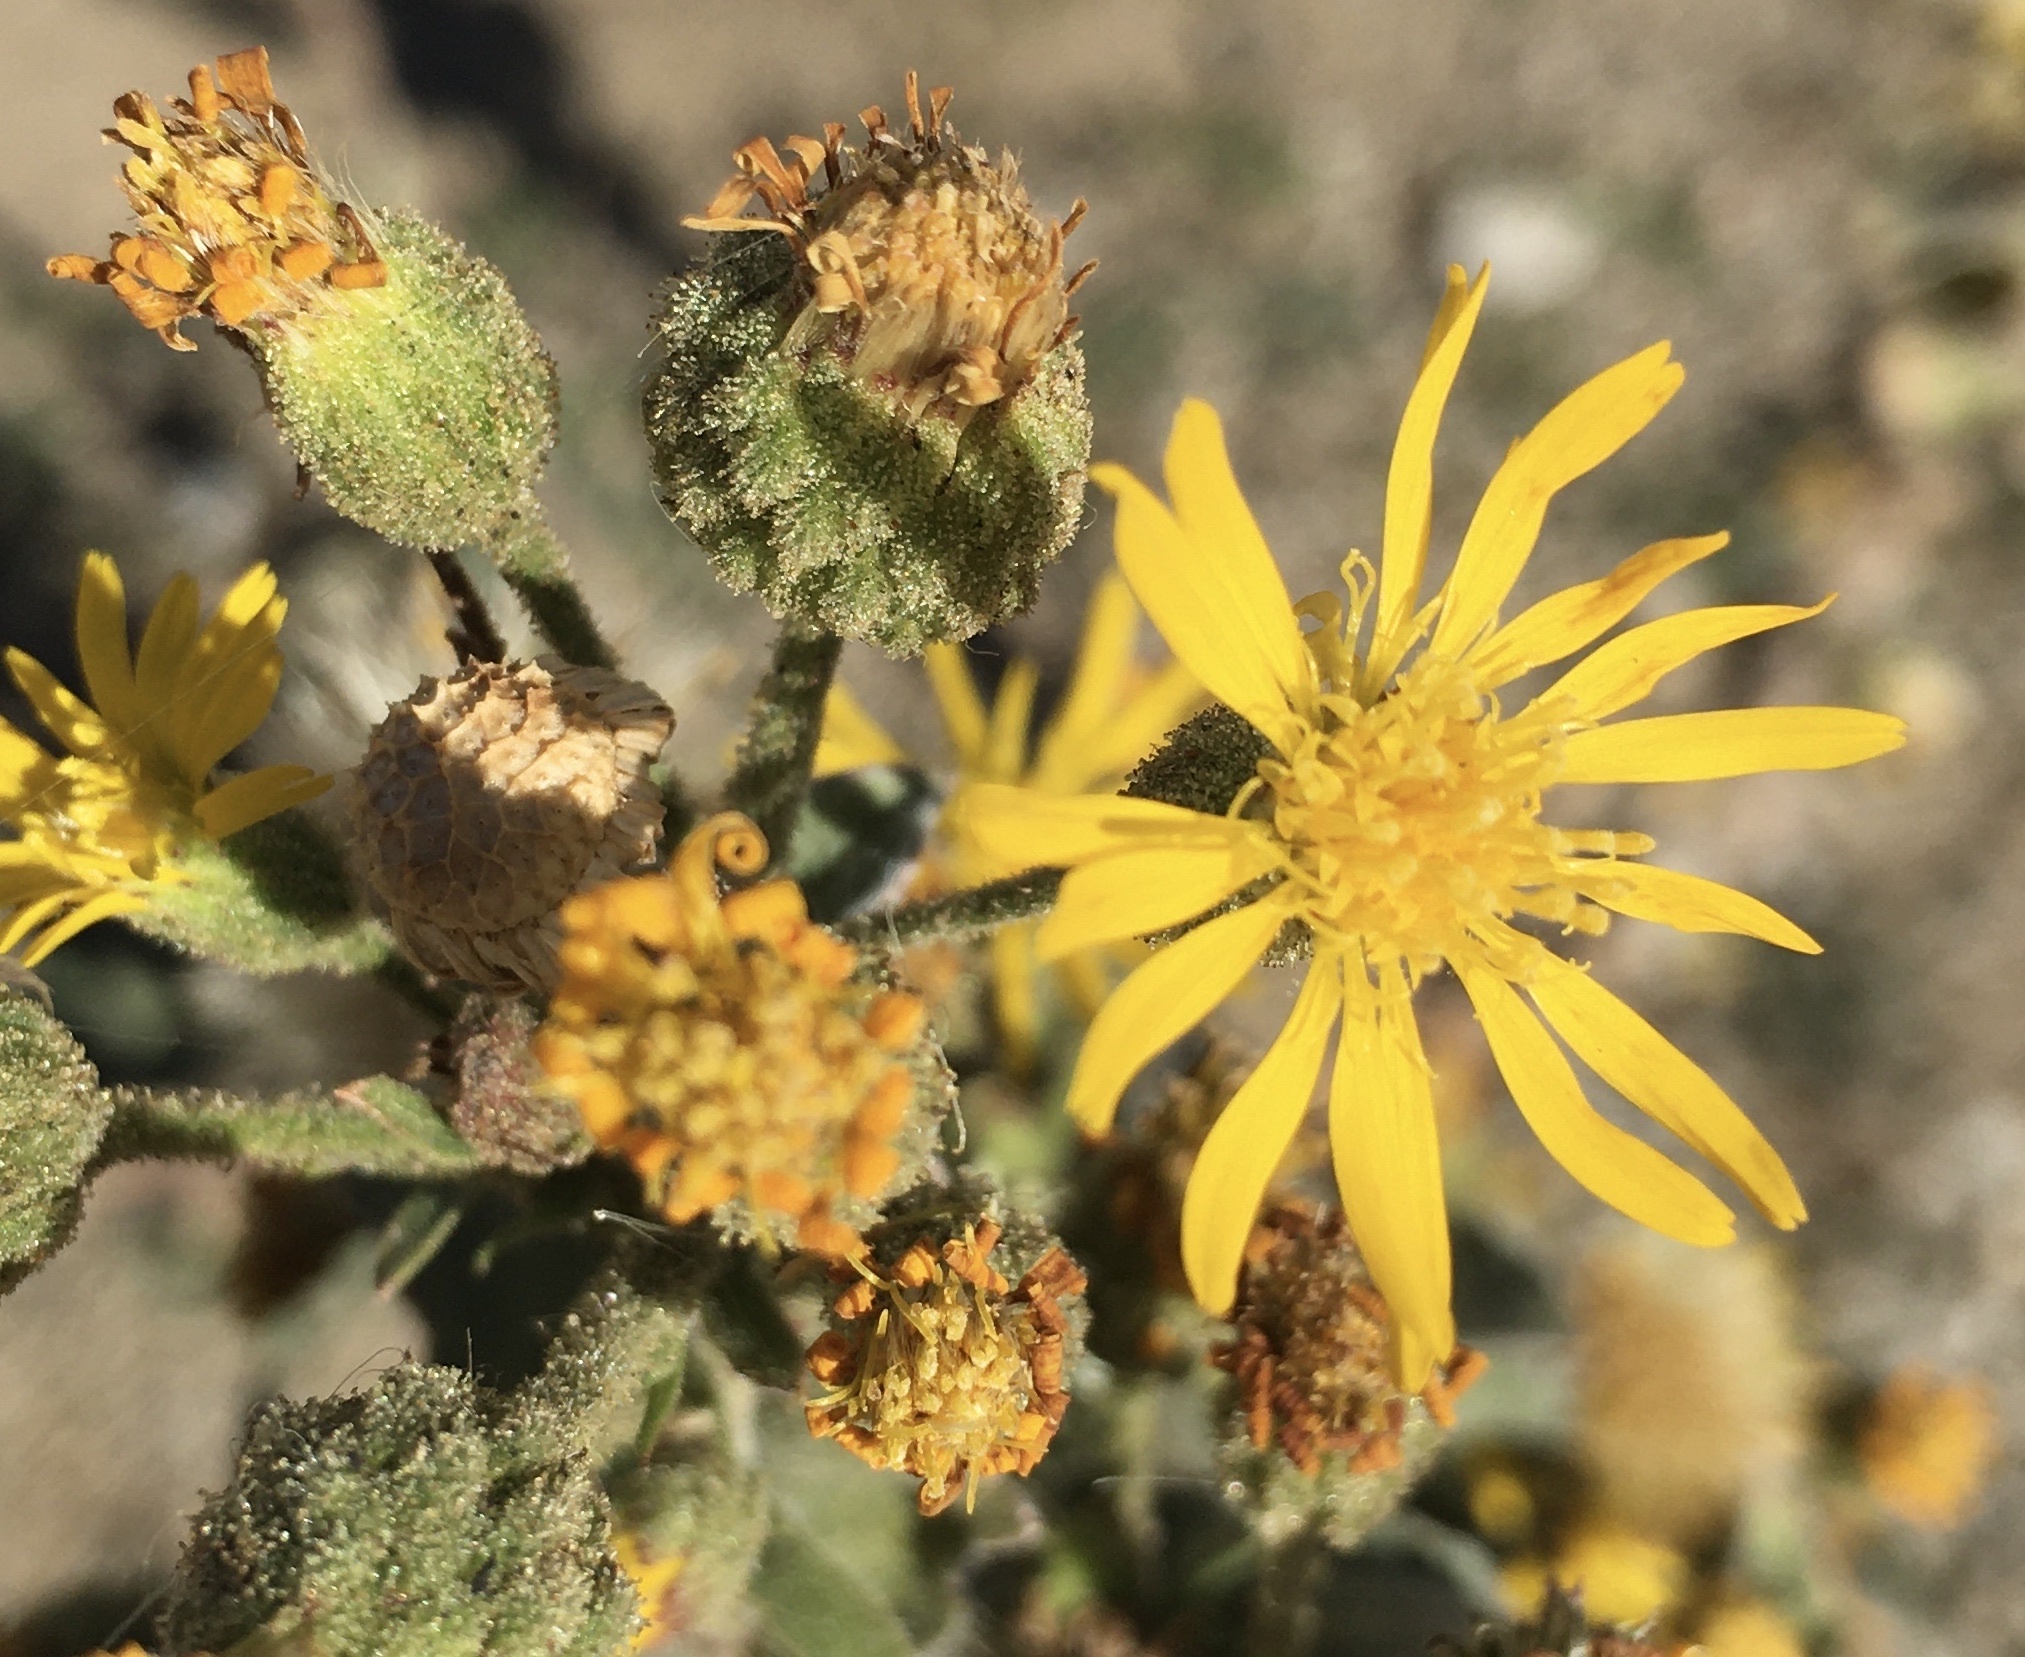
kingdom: Plantae
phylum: Tracheophyta
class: Magnoliopsida
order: Asterales
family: Asteraceae
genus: Heterotheca
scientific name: Heterotheca grandiflora
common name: Telegraphweed
